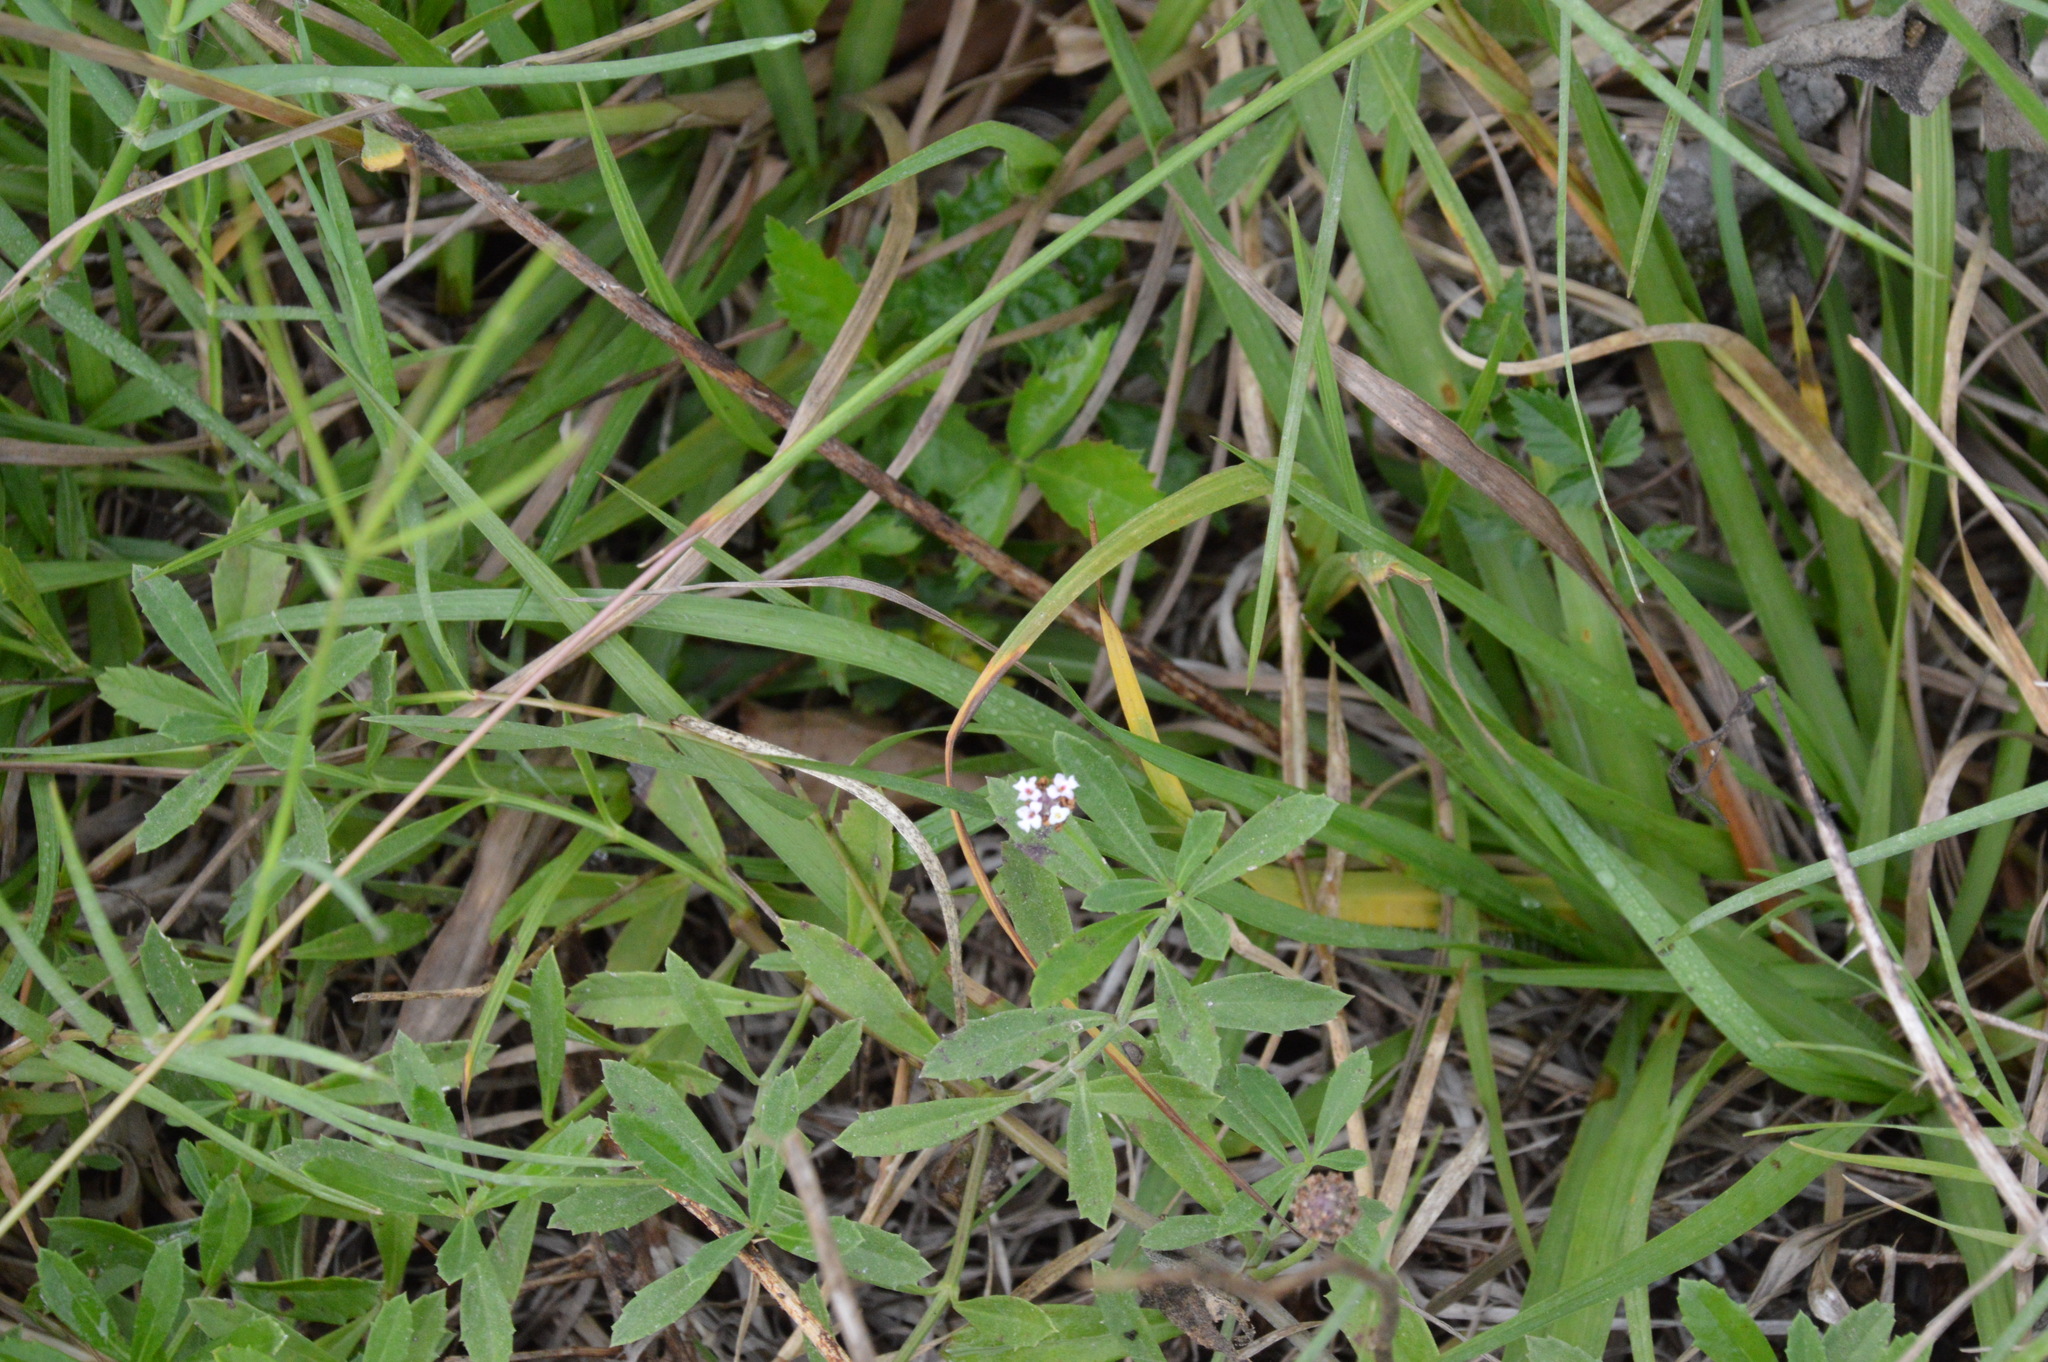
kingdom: Plantae
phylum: Tracheophyta
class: Magnoliopsida
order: Lamiales
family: Verbenaceae
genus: Phyla
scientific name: Phyla nodiflora
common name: Frogfruit
